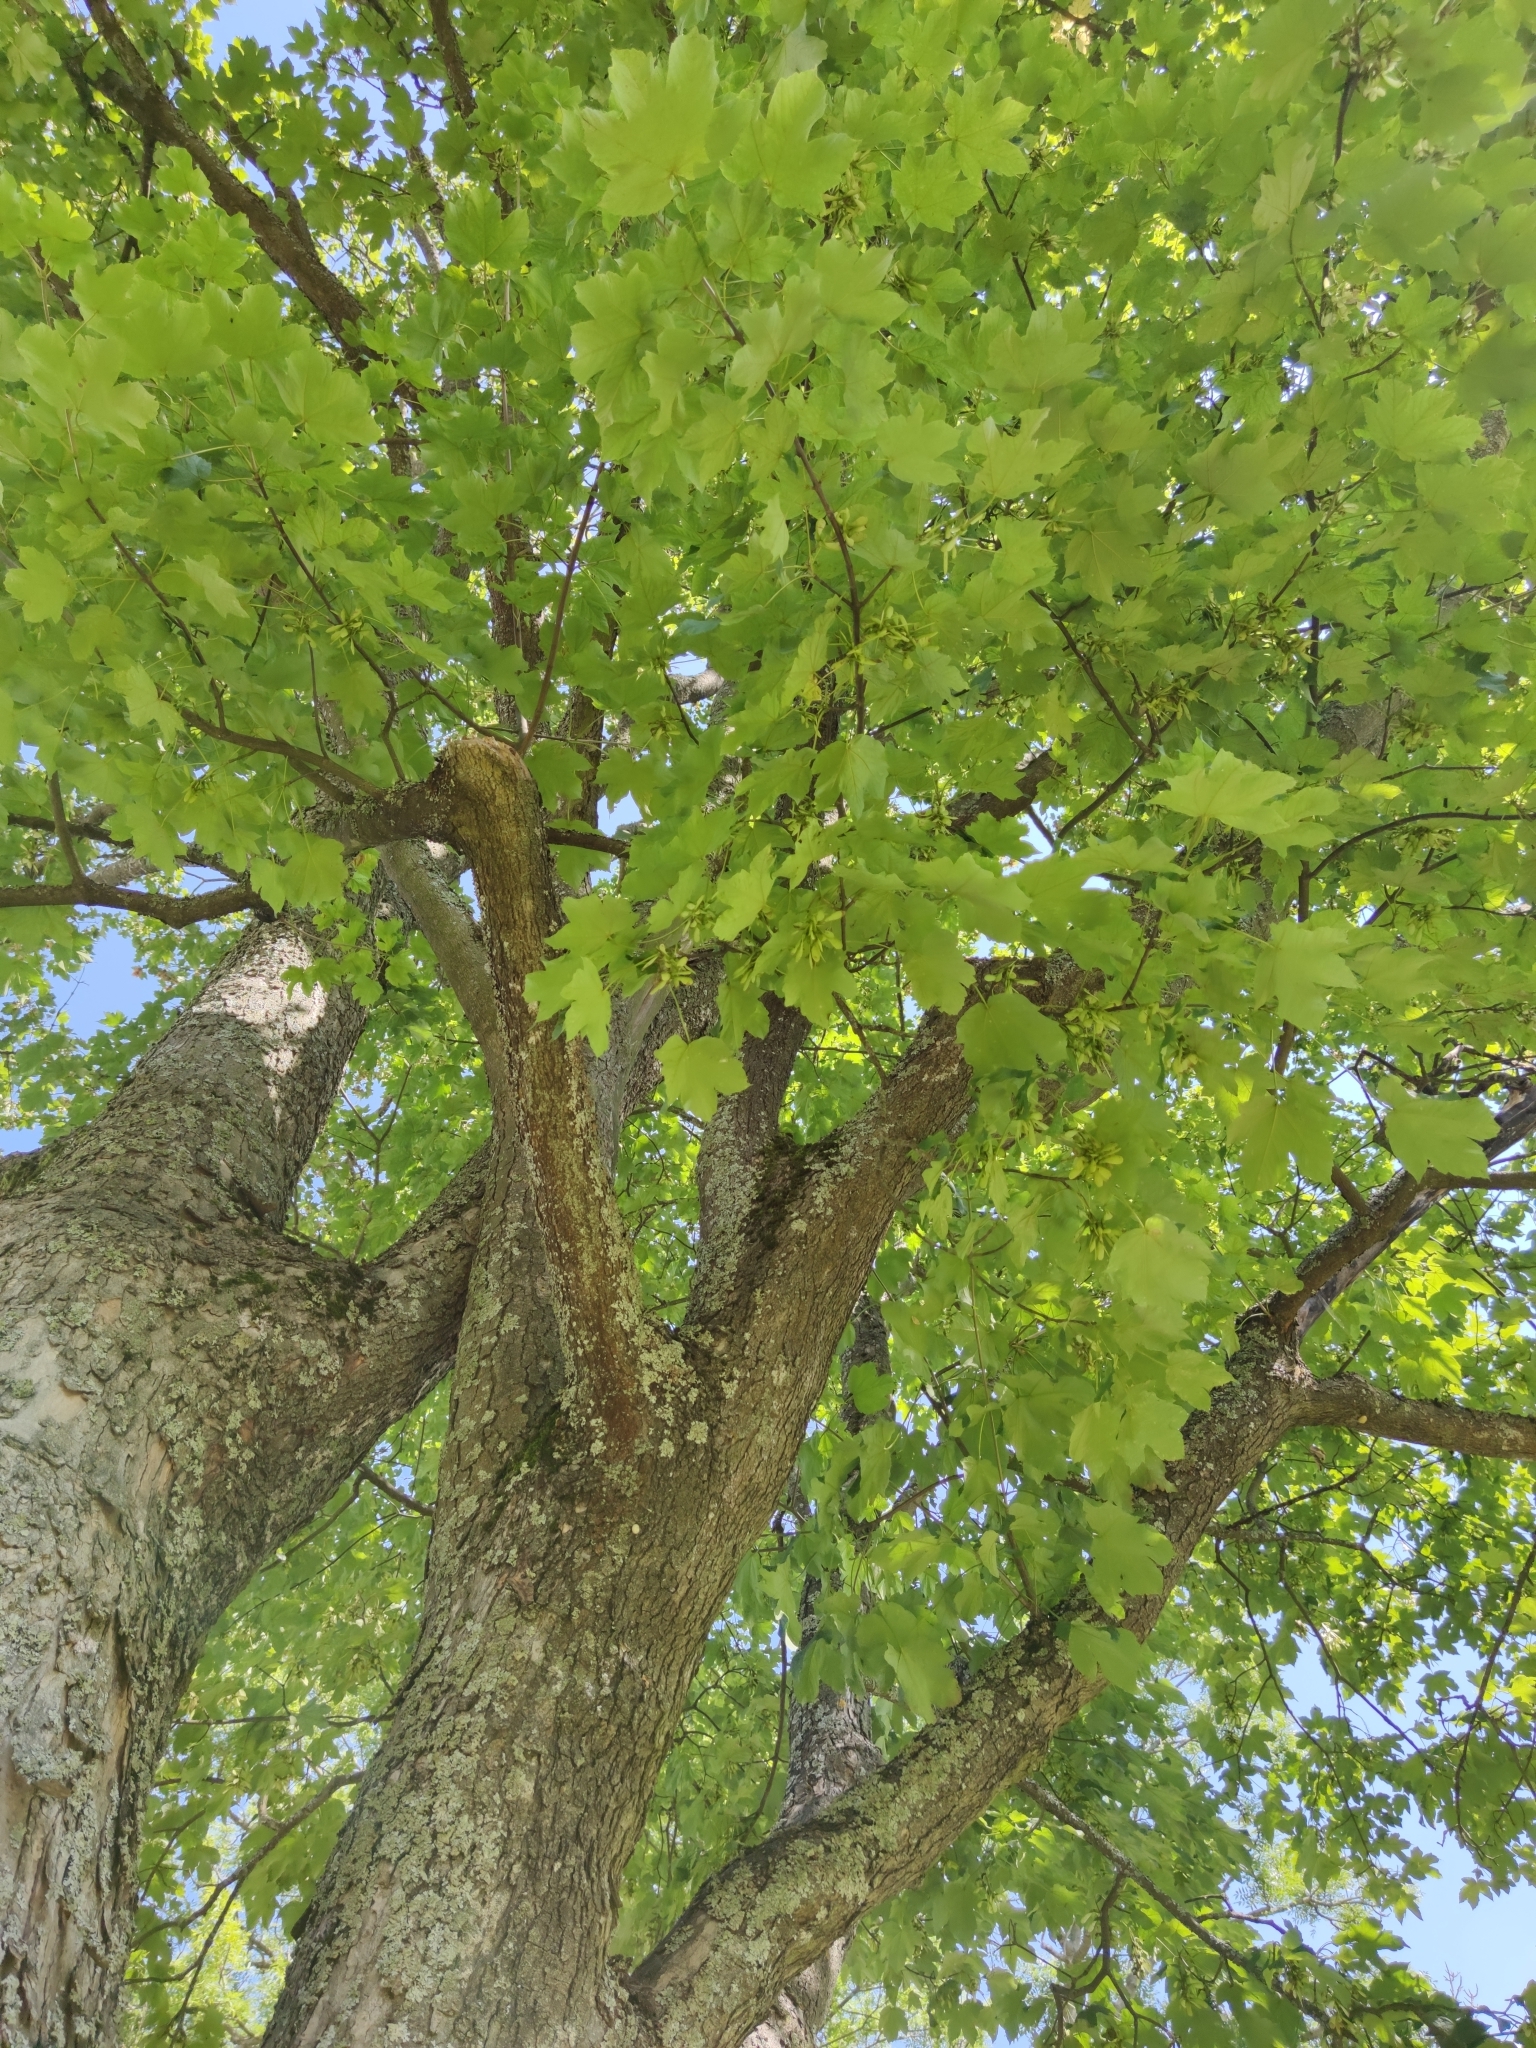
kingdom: Plantae
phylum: Tracheophyta
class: Magnoliopsida
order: Sapindales
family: Sapindaceae
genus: Acer
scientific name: Acer platanoides
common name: Norway maple
